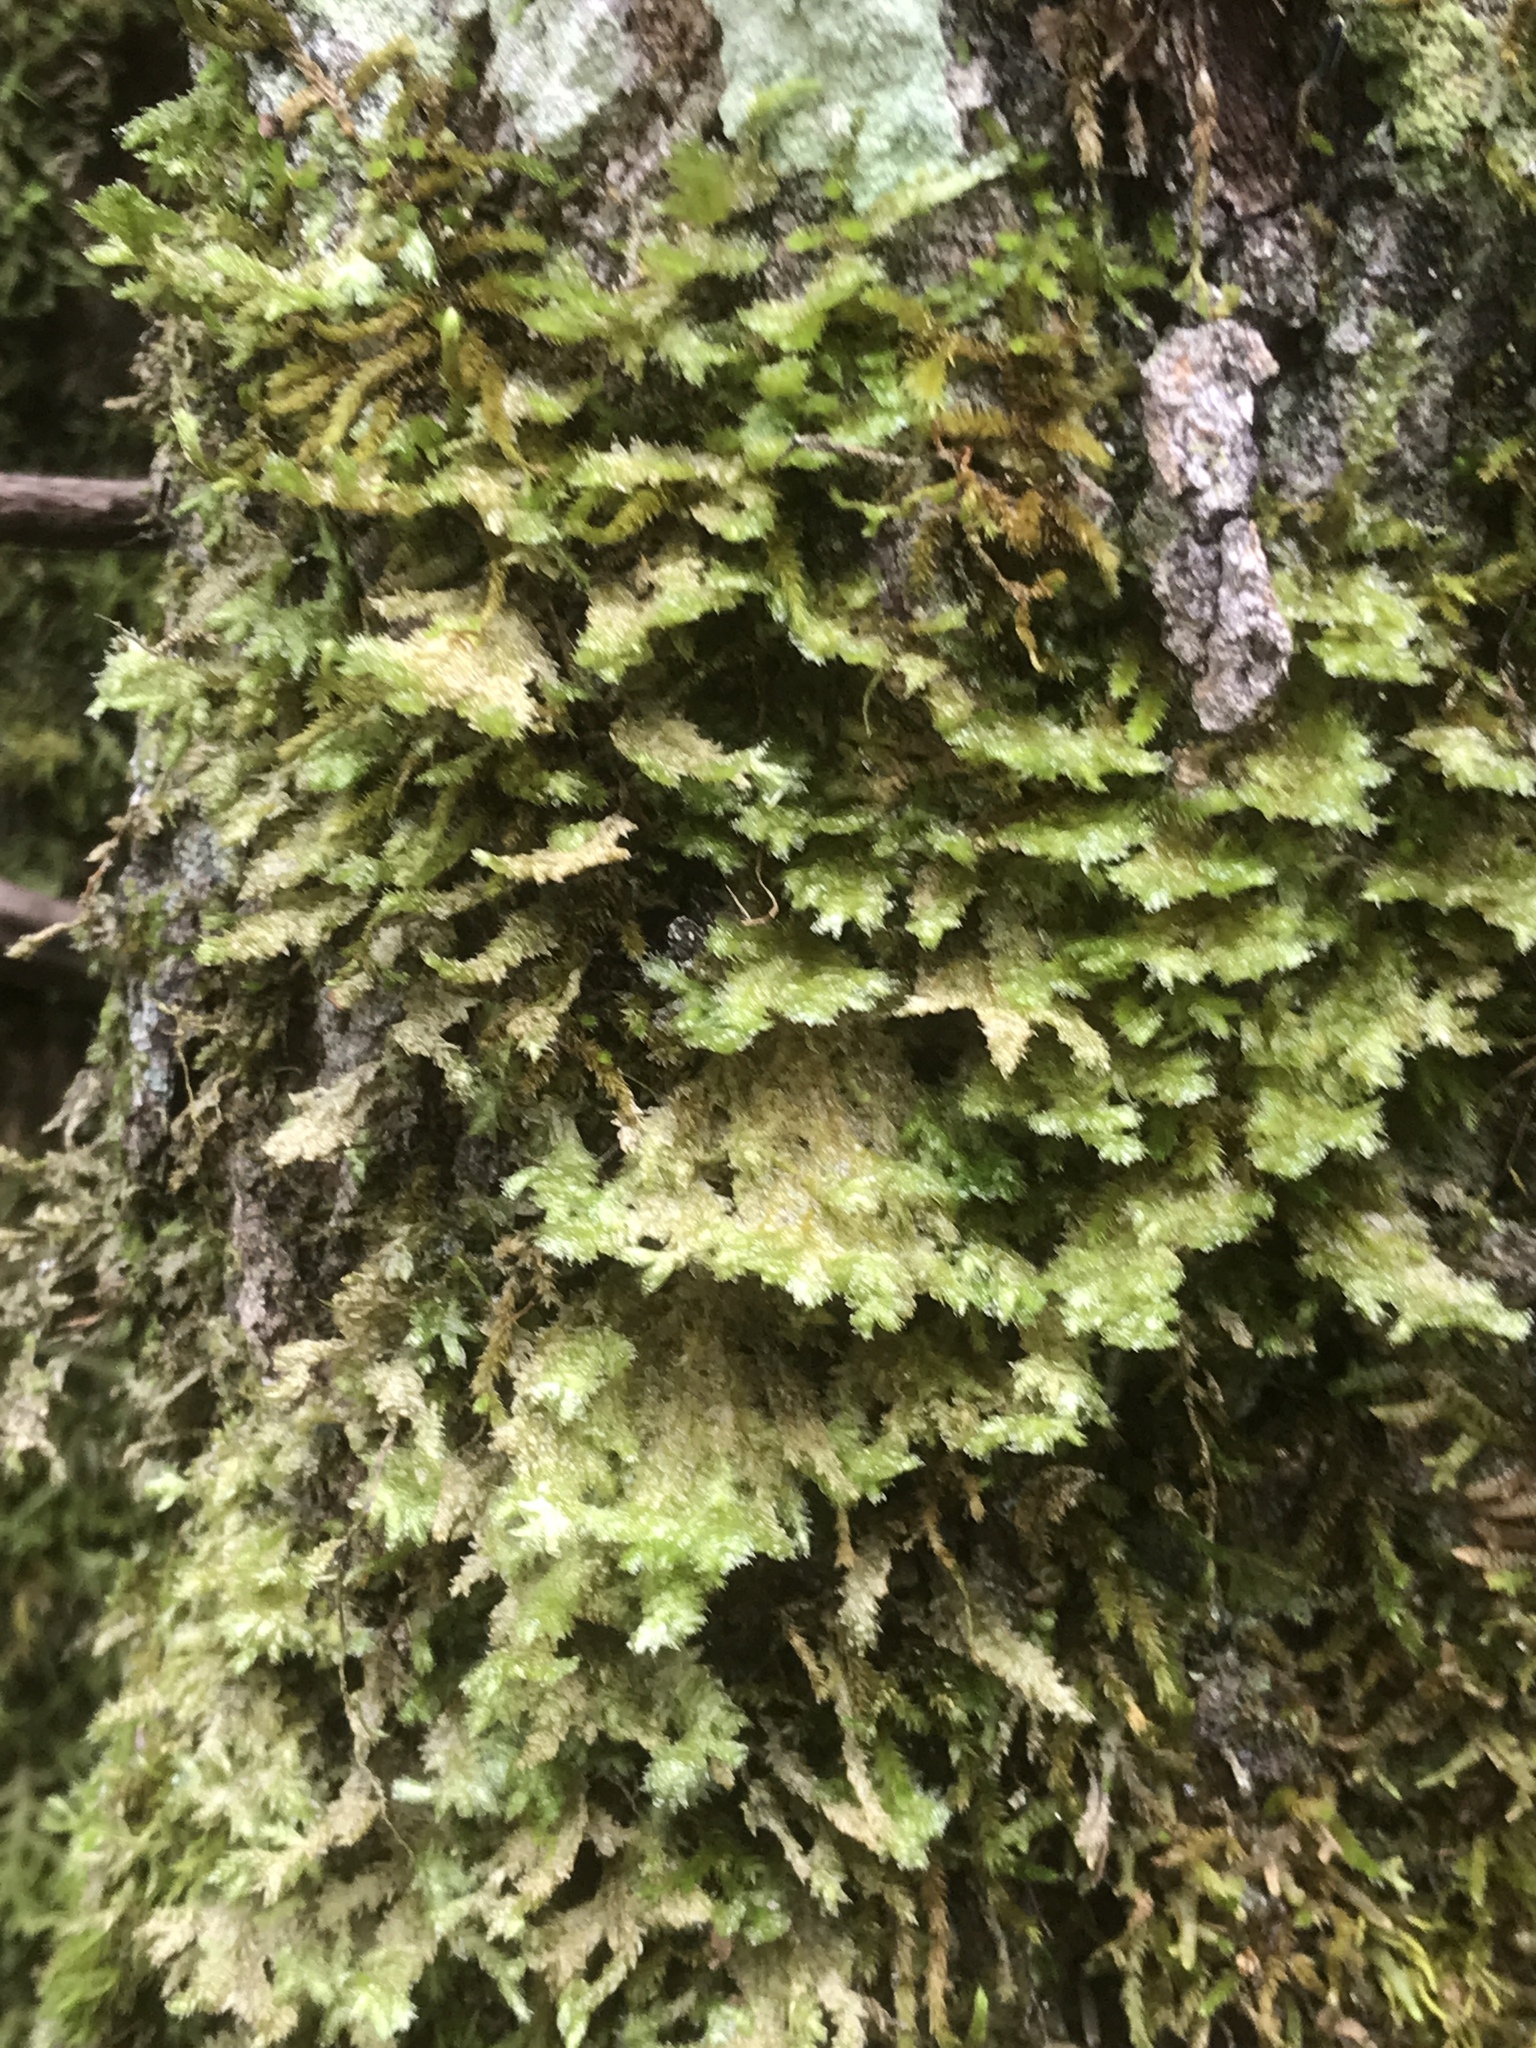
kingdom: Plantae
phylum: Bryophyta
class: Bryopsida
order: Hypnales
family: Neckeraceae
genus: Neckera
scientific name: Neckera pennata
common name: Feathery neckera
